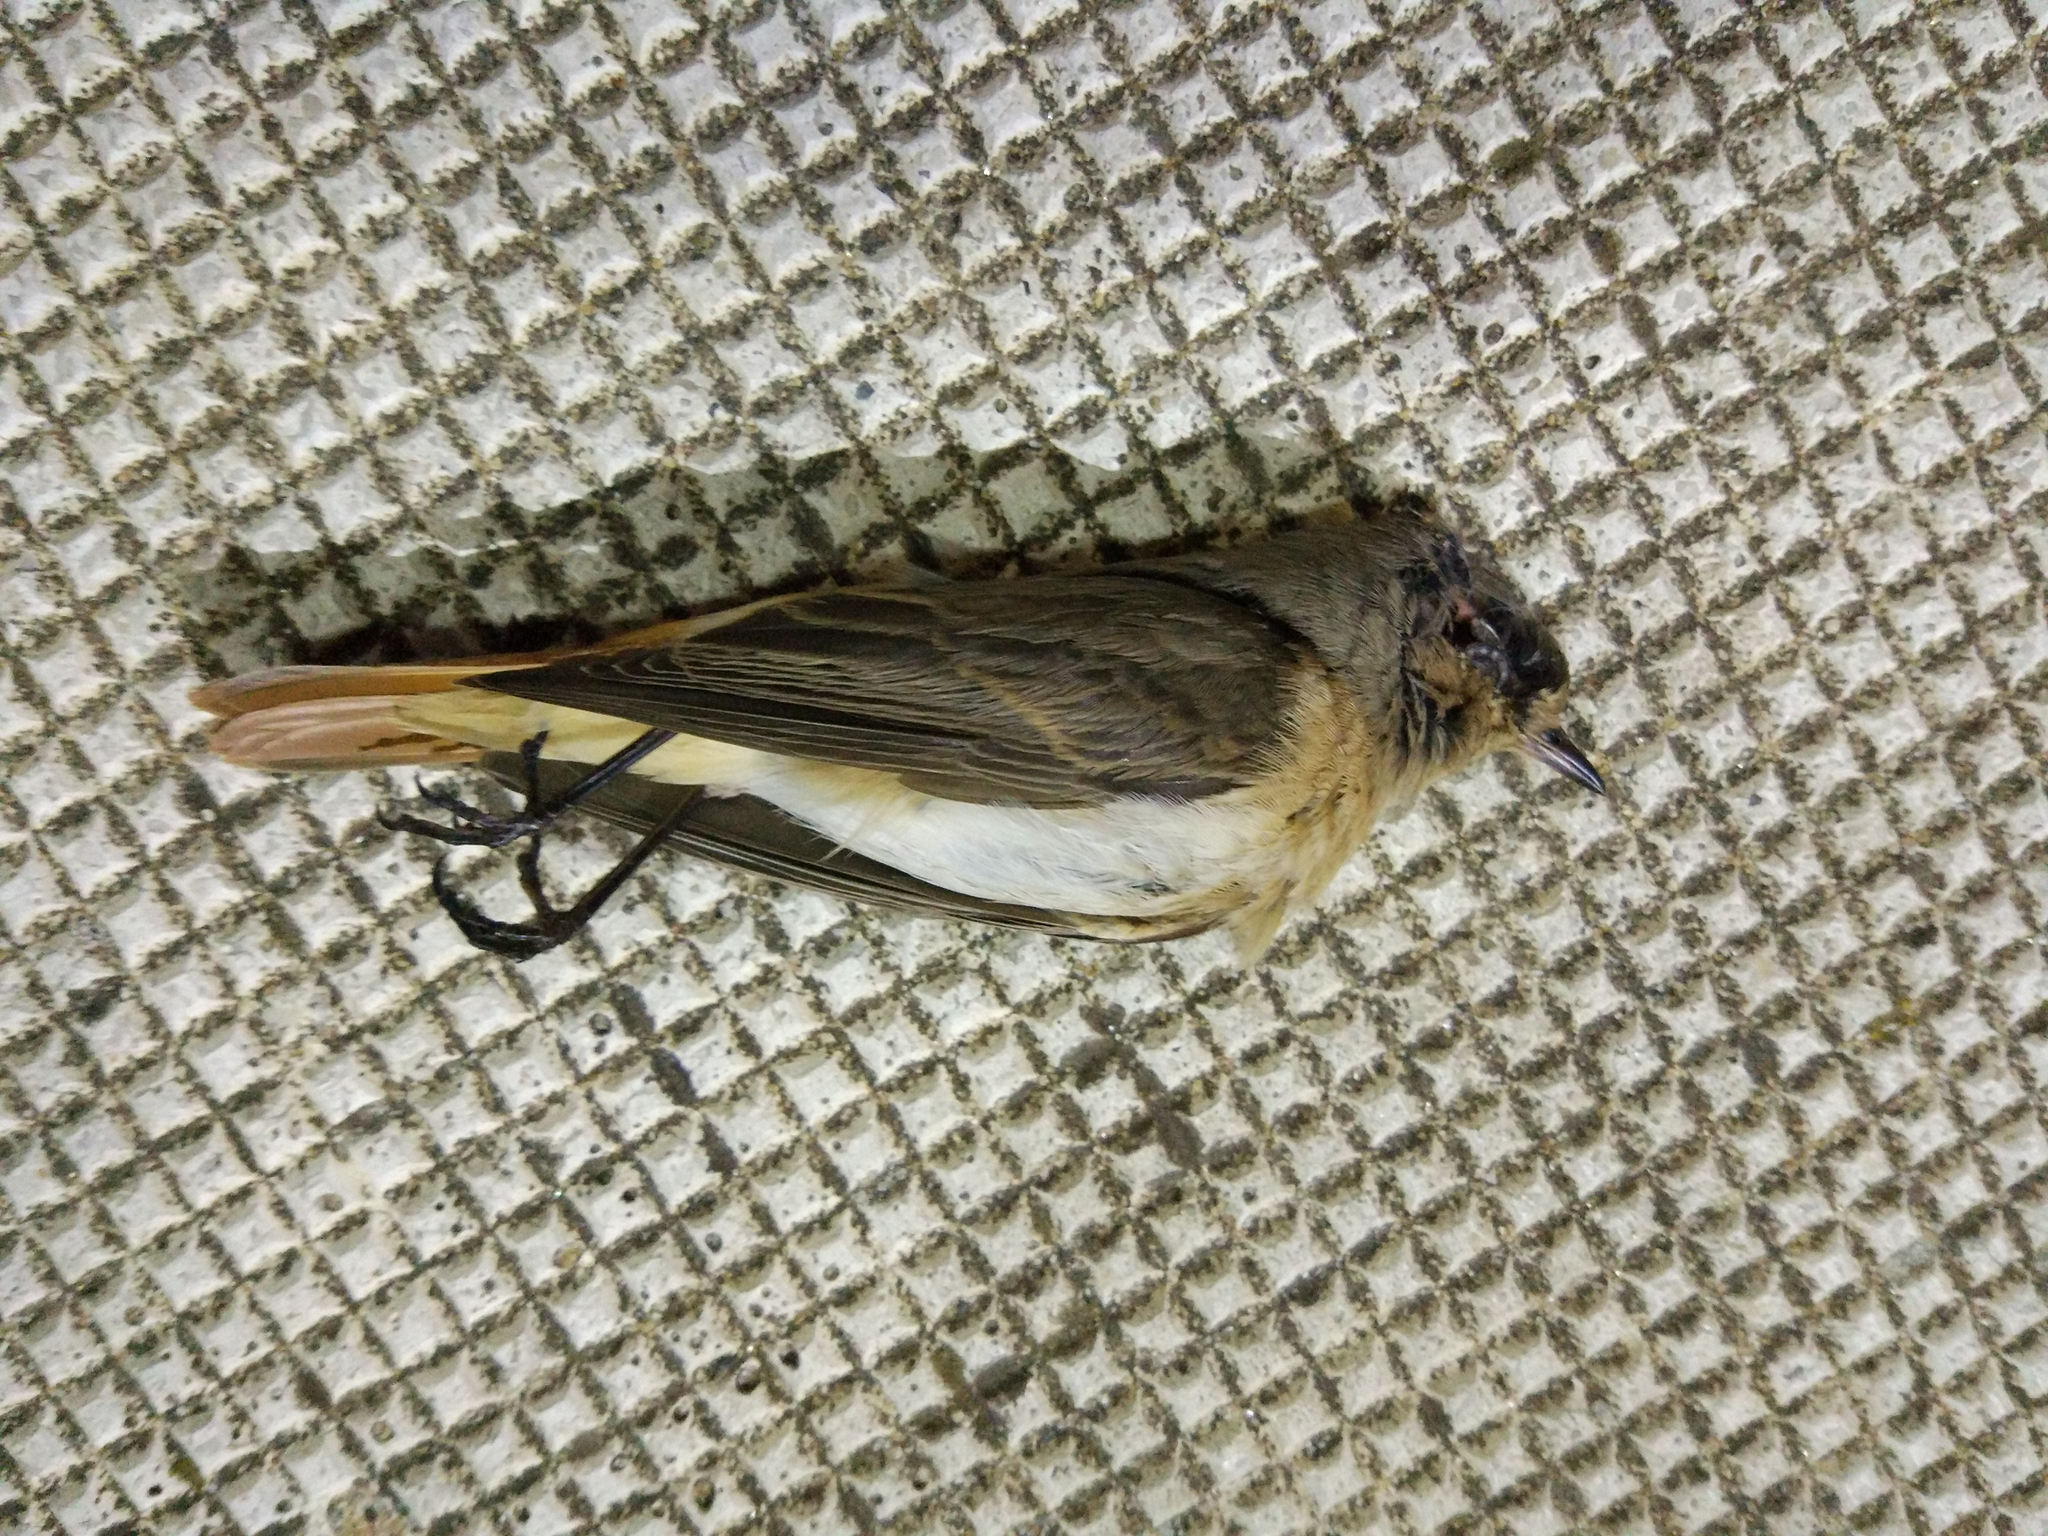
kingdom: Animalia
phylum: Chordata
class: Aves
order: Passeriformes
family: Muscicapidae
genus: Phoenicurus
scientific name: Phoenicurus phoenicurus
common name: Common redstart
